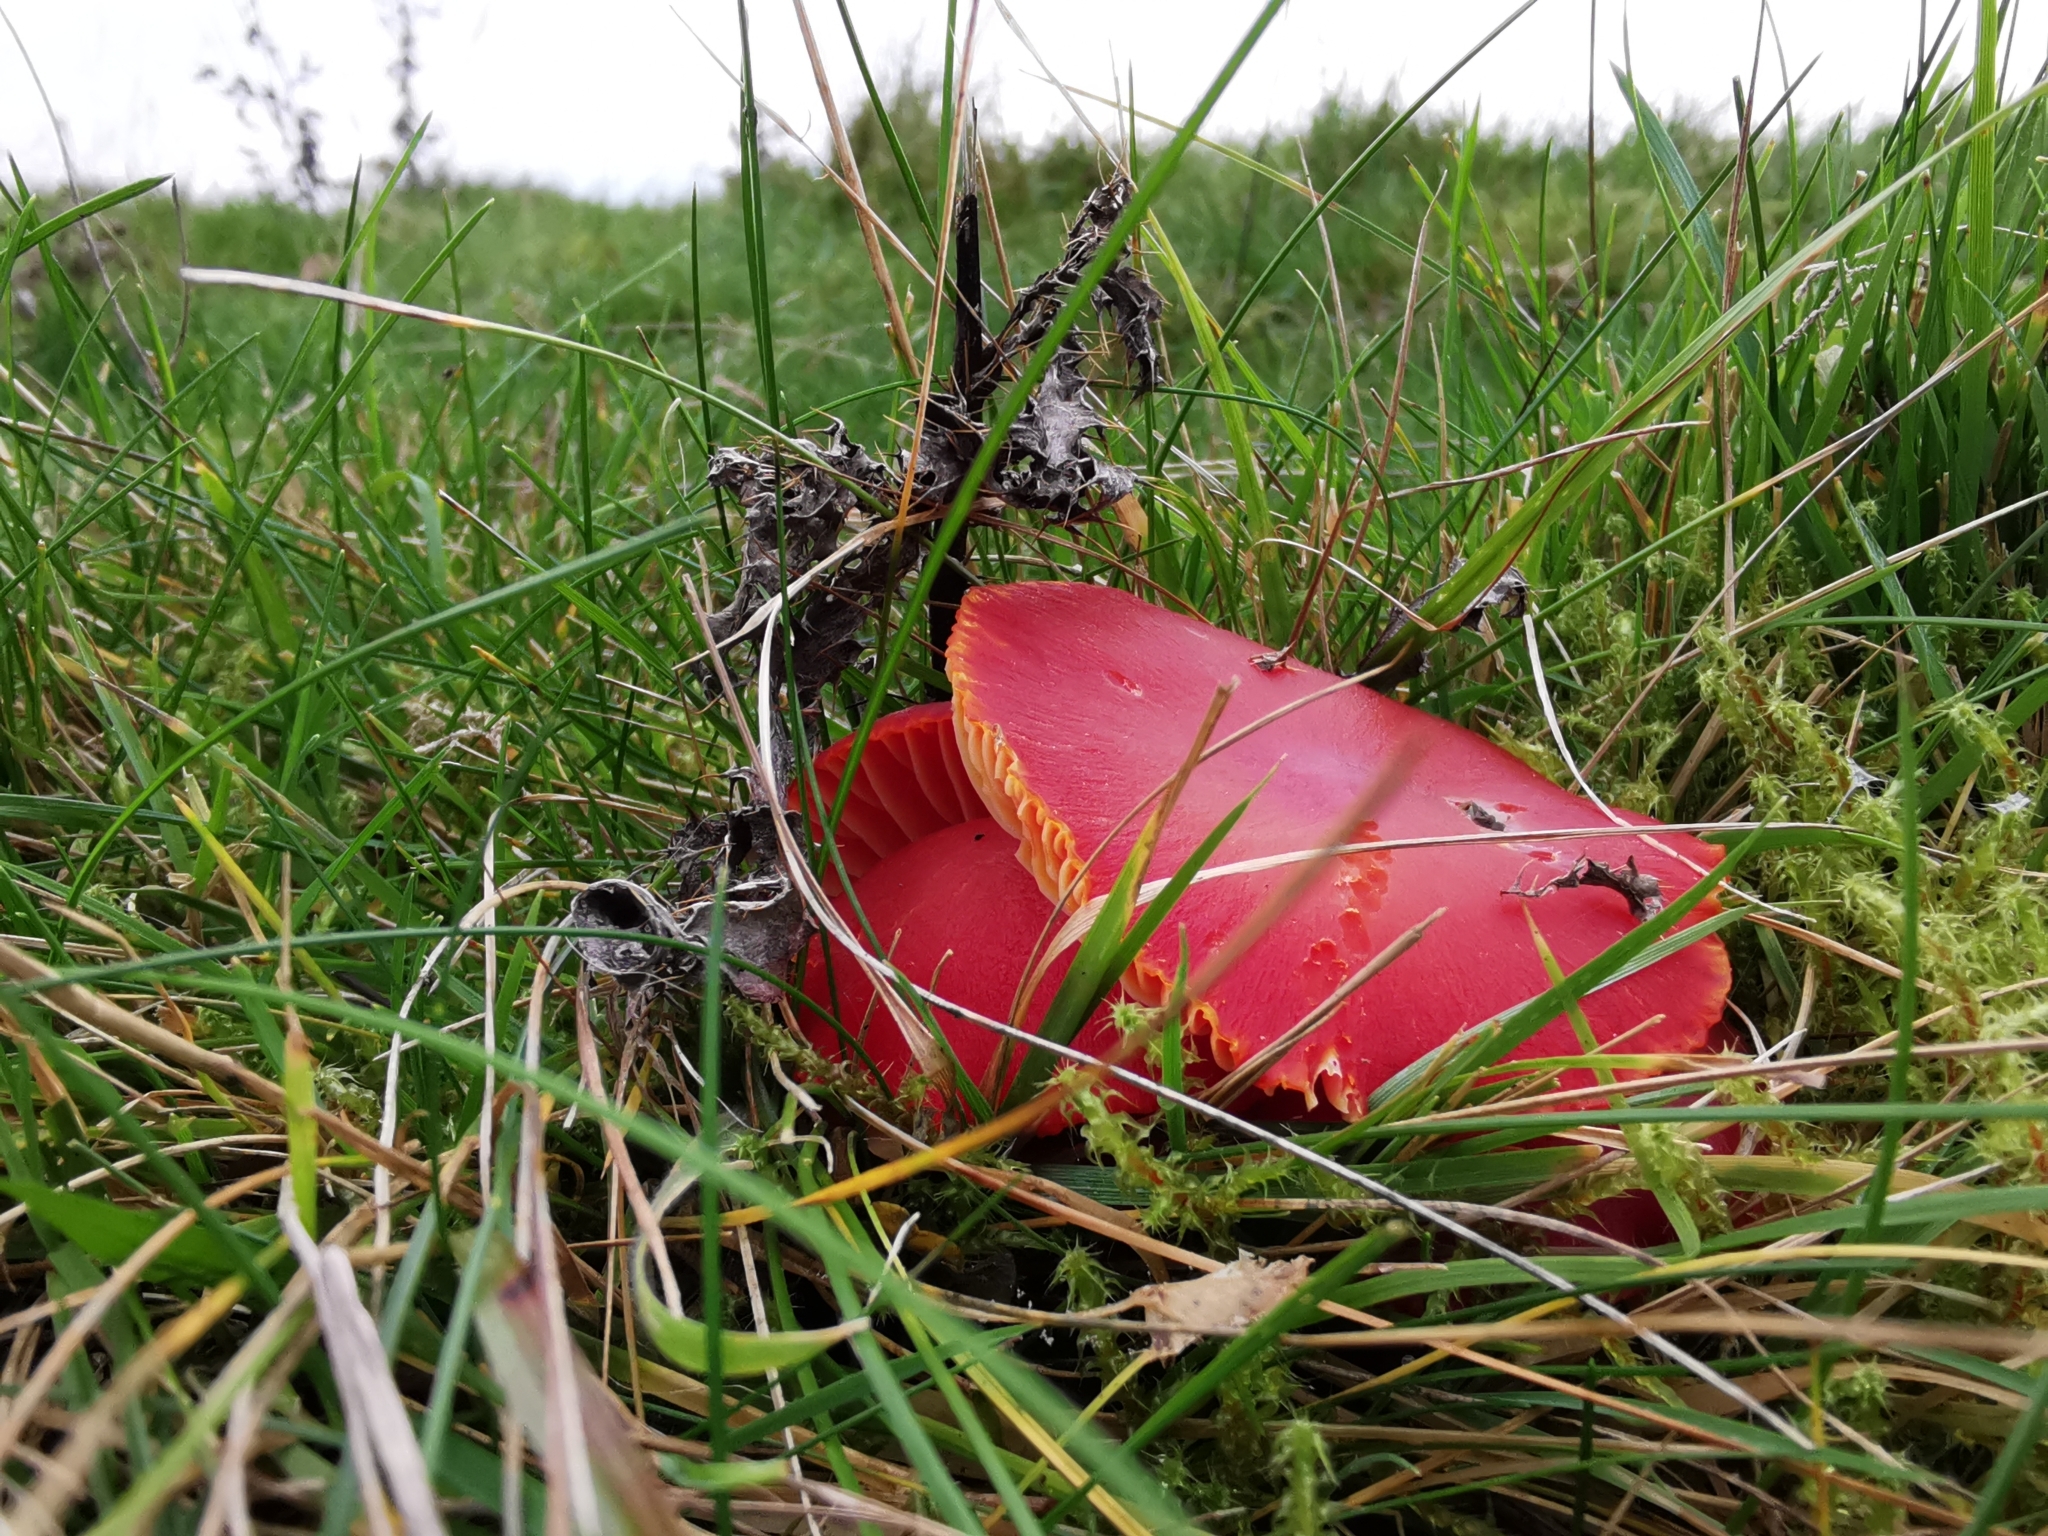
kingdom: Fungi
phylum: Basidiomycota
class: Agaricomycetes
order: Agaricales
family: Hygrophoraceae
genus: Hygrocybe
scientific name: Hygrocybe coccinea
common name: Scarlet hood
